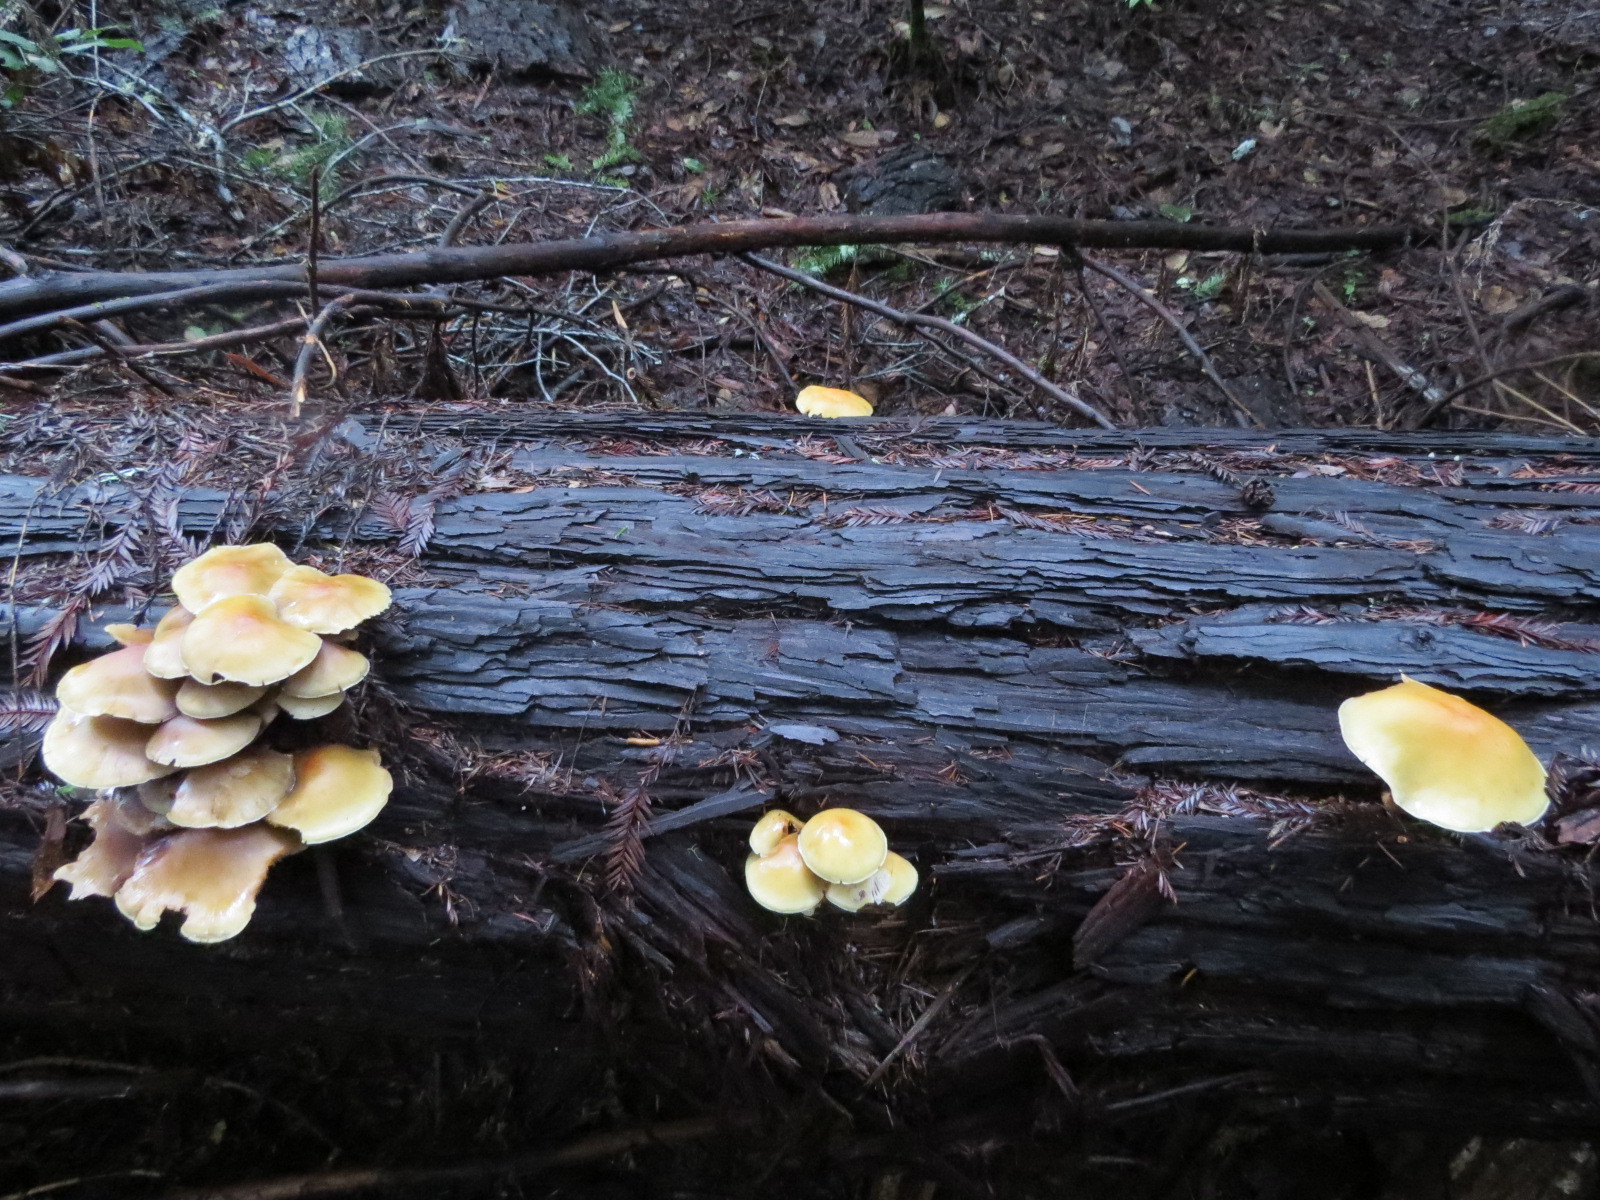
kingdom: Fungi
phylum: Basidiomycota
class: Agaricomycetes
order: Agaricales
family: Strophariaceae
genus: Hypholoma
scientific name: Hypholoma capnoides
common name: Conifer tuft
